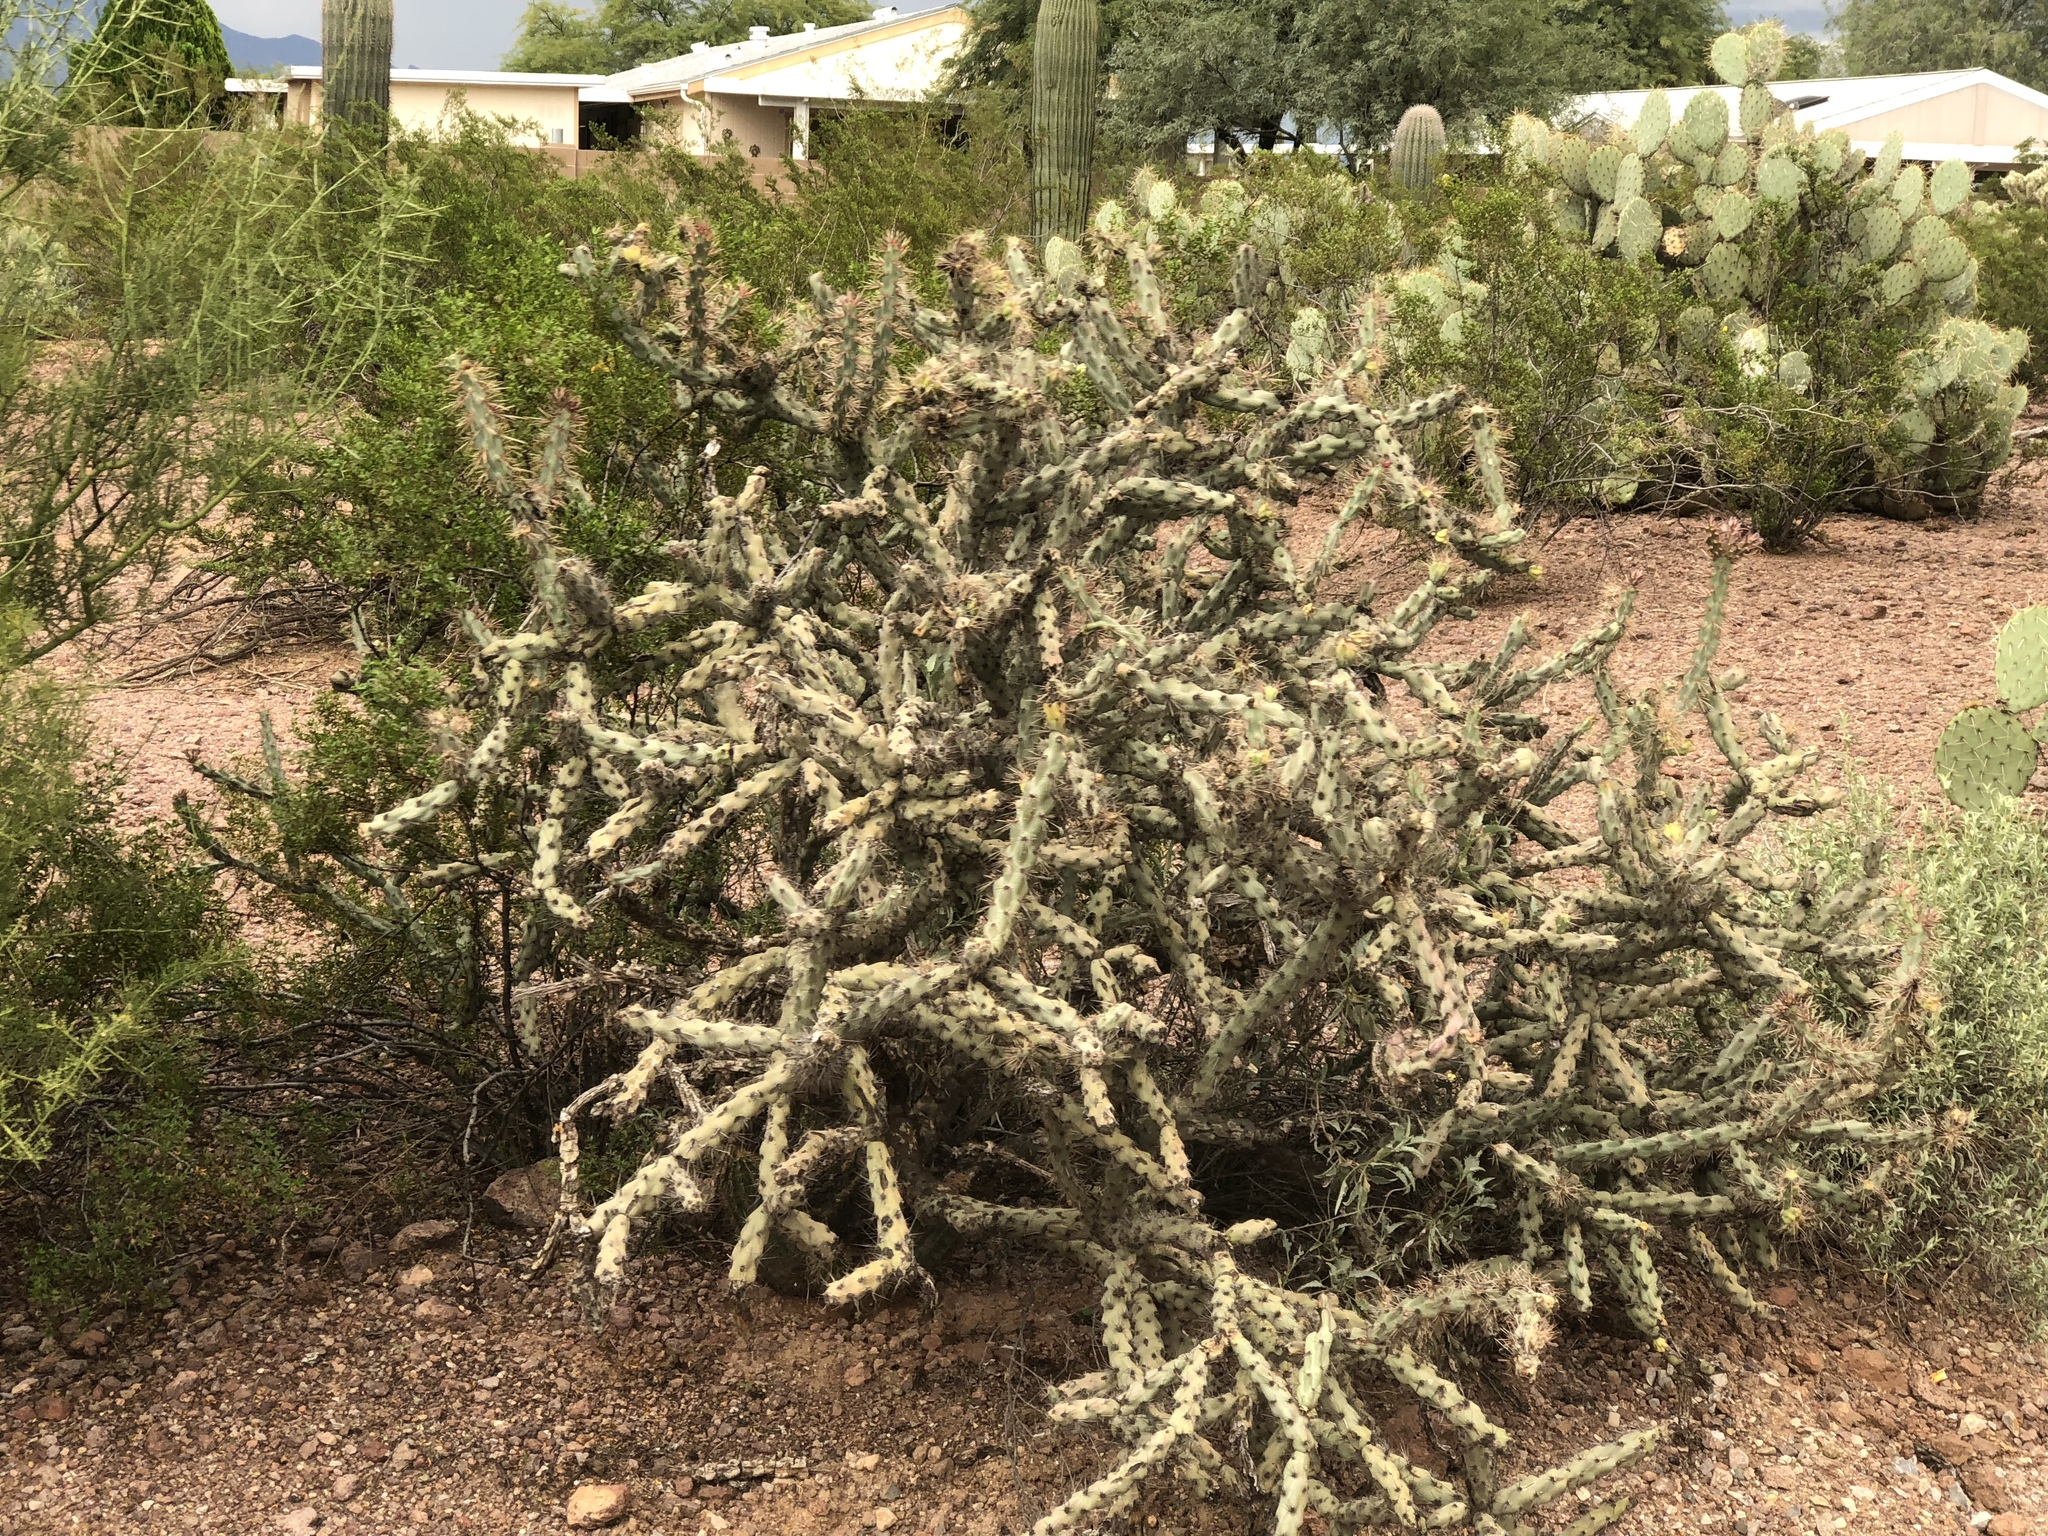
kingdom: Plantae
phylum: Tracheophyta
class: Magnoliopsida
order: Caryophyllales
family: Cactaceae
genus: Cylindropuntia
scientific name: Cylindropuntia acanthocarpa
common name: Buckhorn cholla
